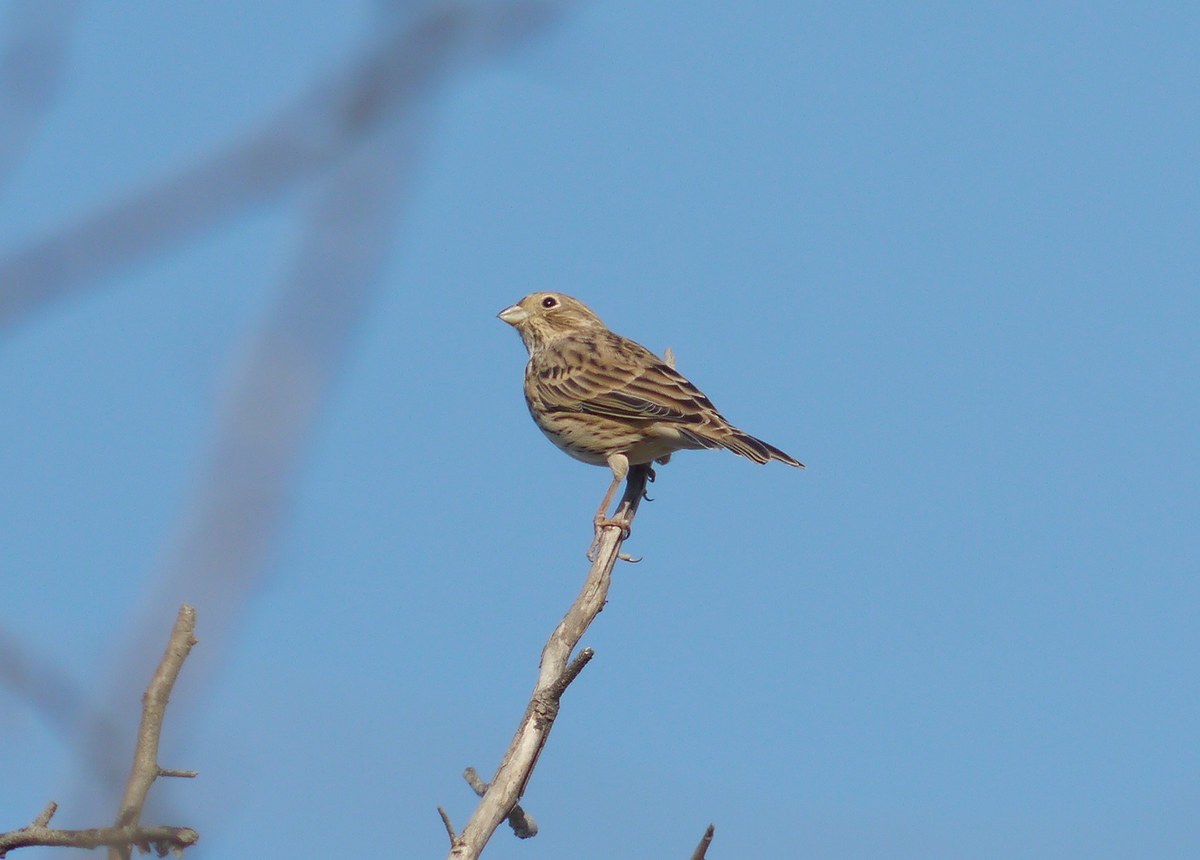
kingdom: Animalia
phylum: Chordata
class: Aves
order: Passeriformes
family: Emberizidae
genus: Emberiza
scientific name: Emberiza calandra
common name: Corn bunting
